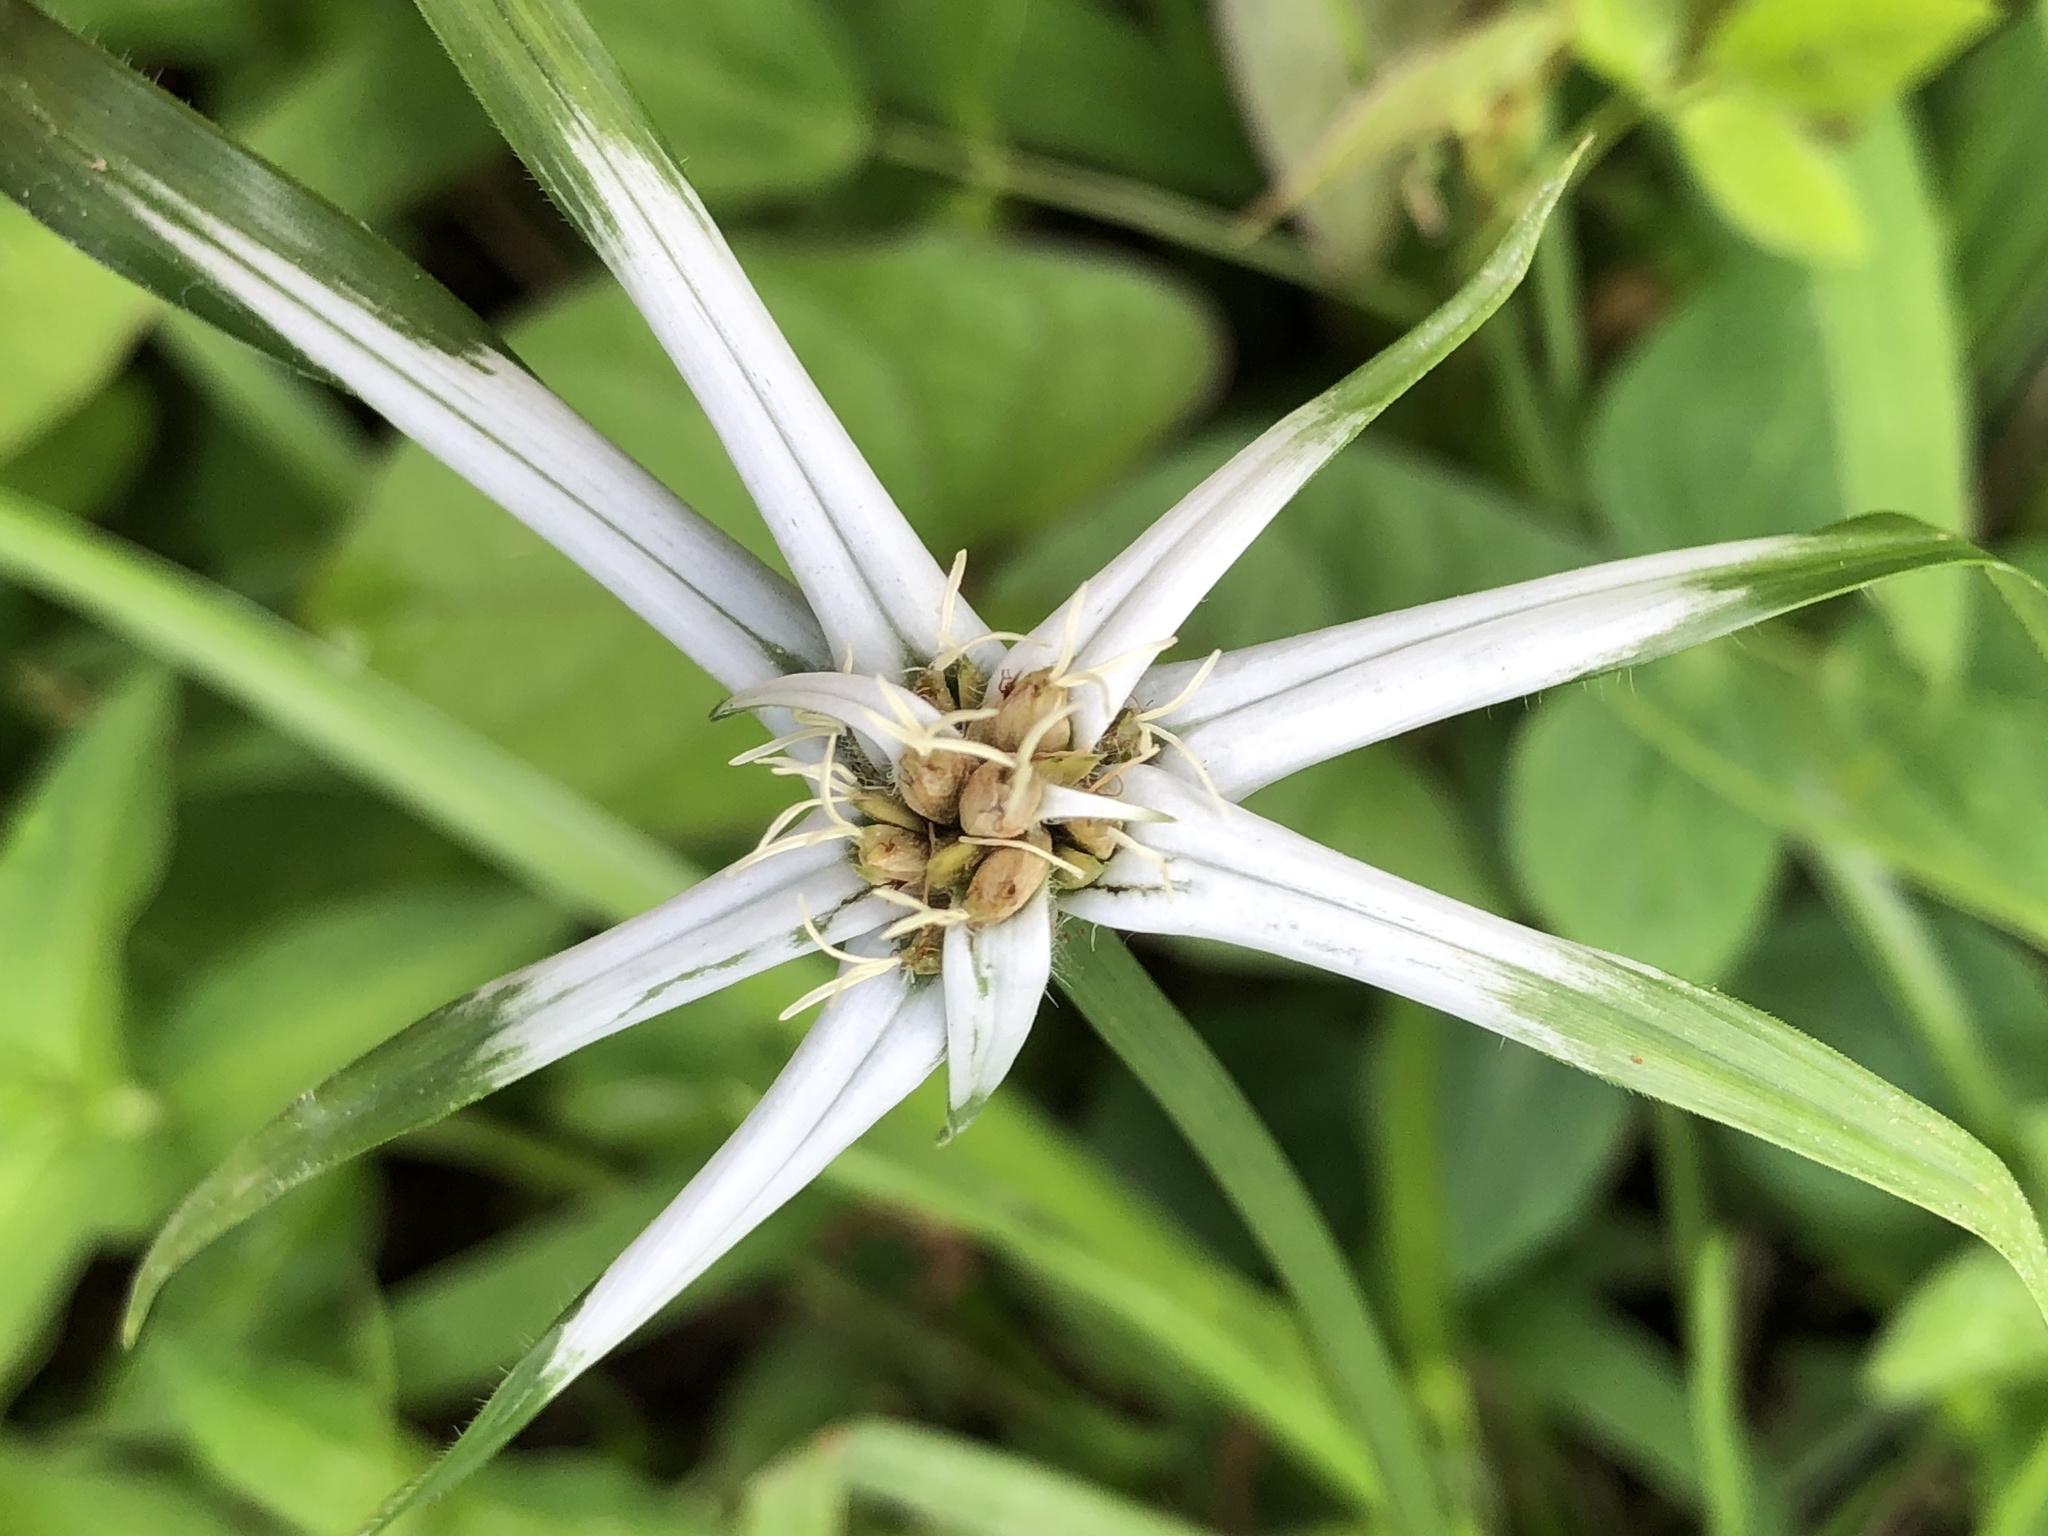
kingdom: Plantae
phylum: Tracheophyta
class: Liliopsida
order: Poales
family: Cyperaceae
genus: Rhynchospora
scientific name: Rhynchospora pura
